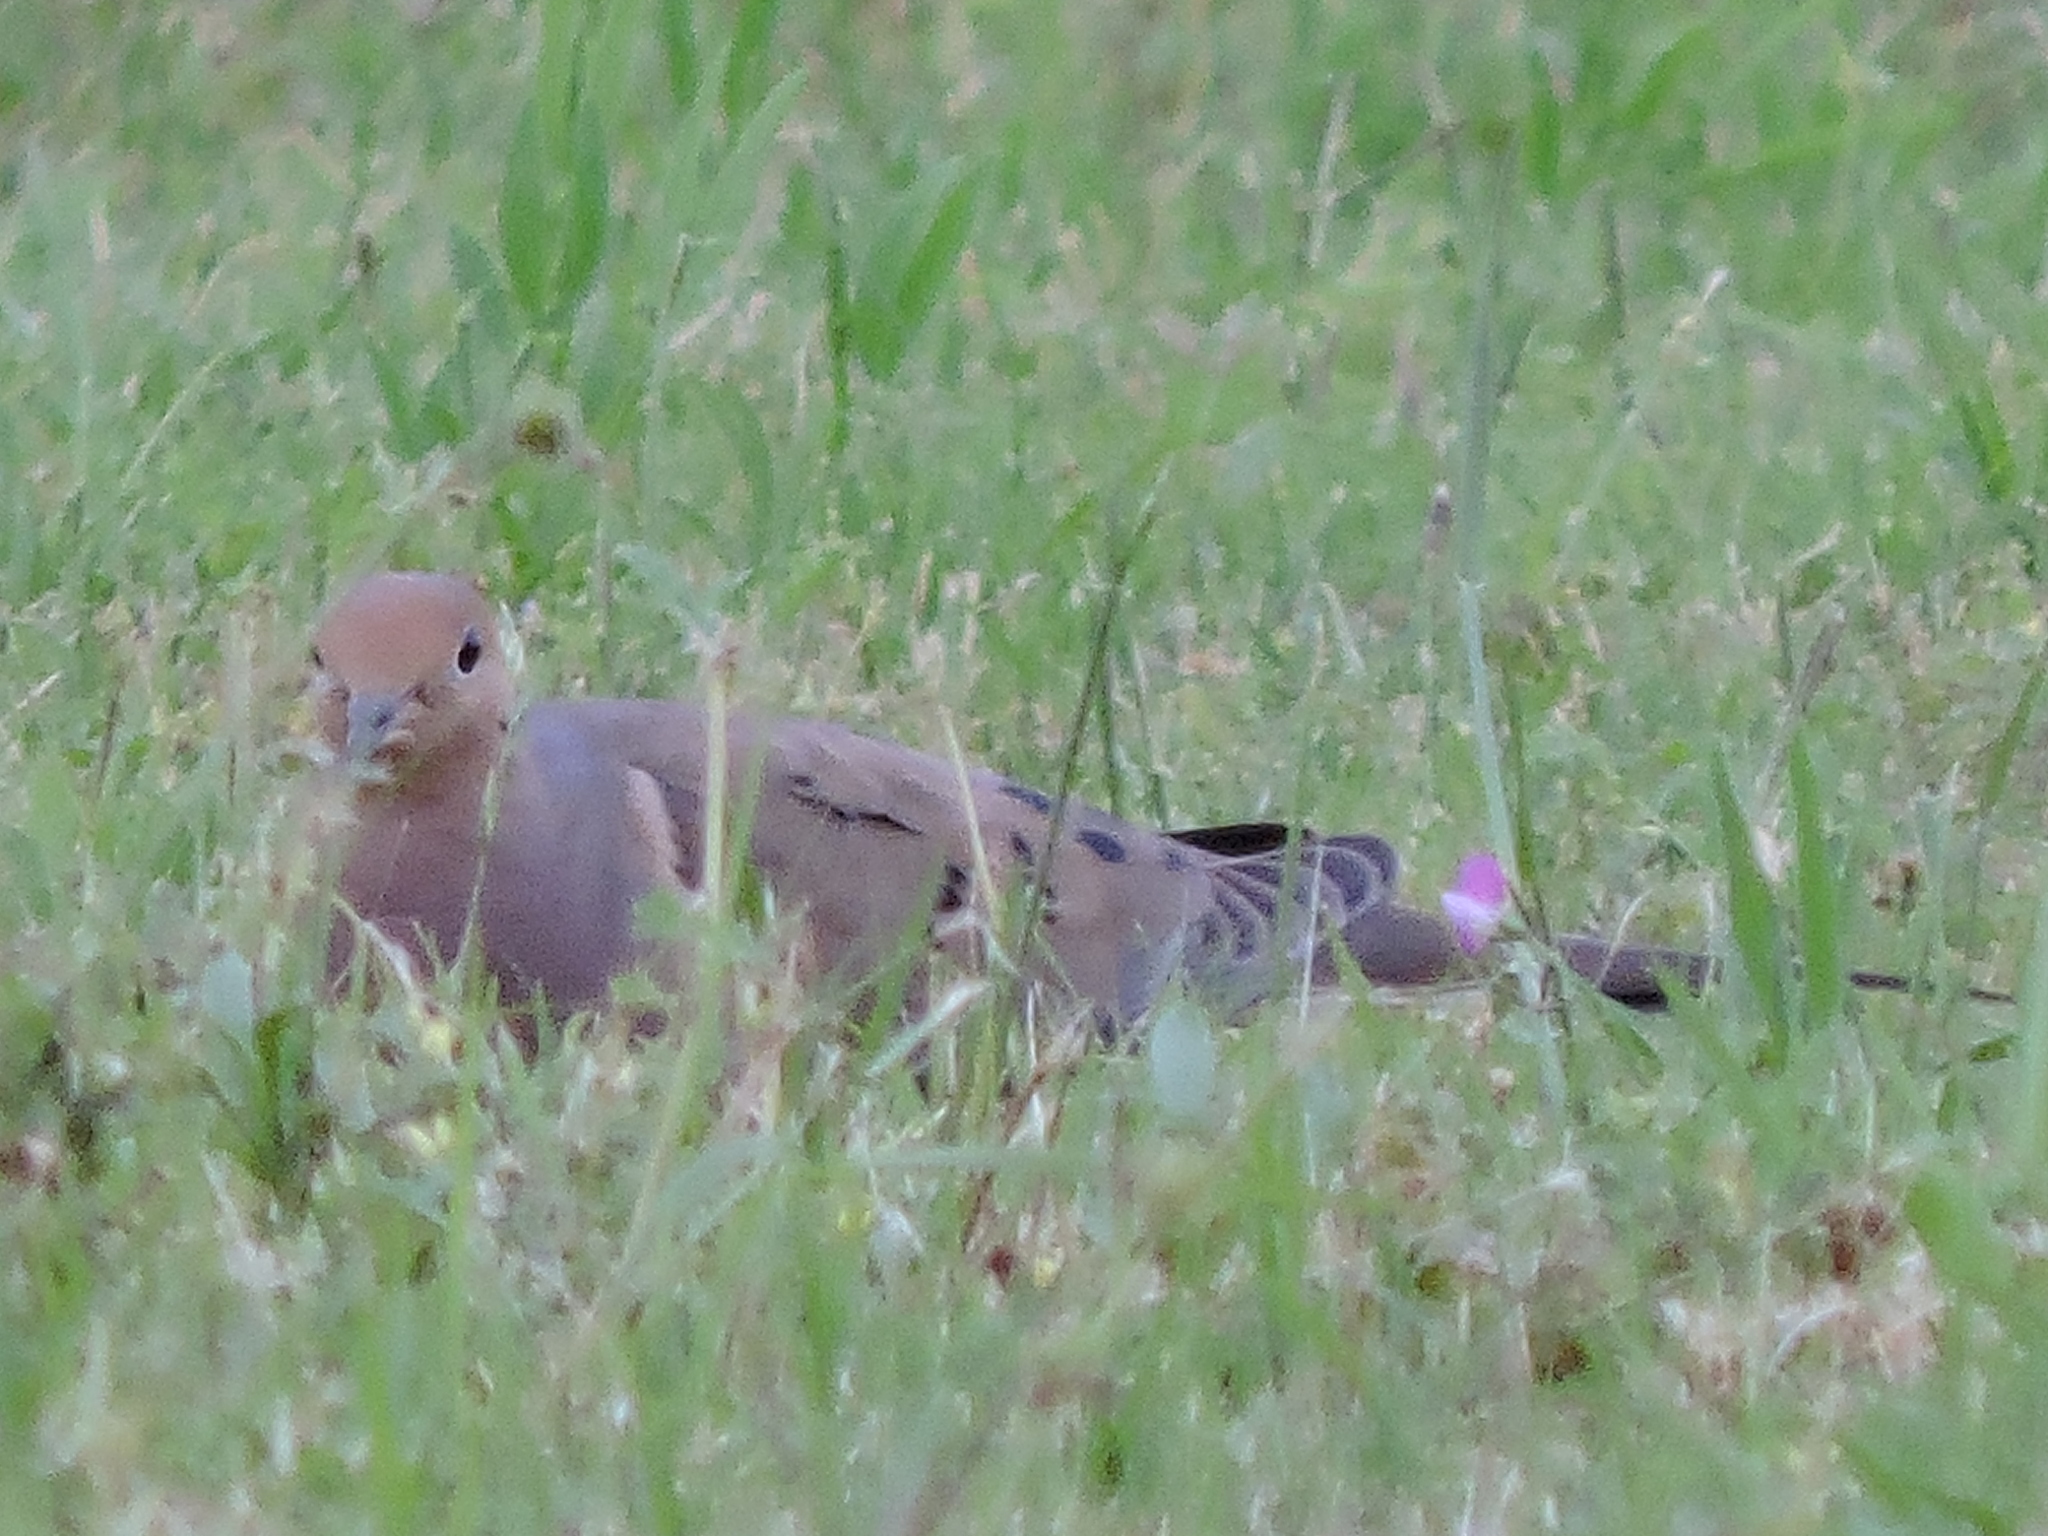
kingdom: Animalia
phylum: Chordata
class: Aves
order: Columbiformes
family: Columbidae
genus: Zenaida
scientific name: Zenaida macroura
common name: Mourning dove
